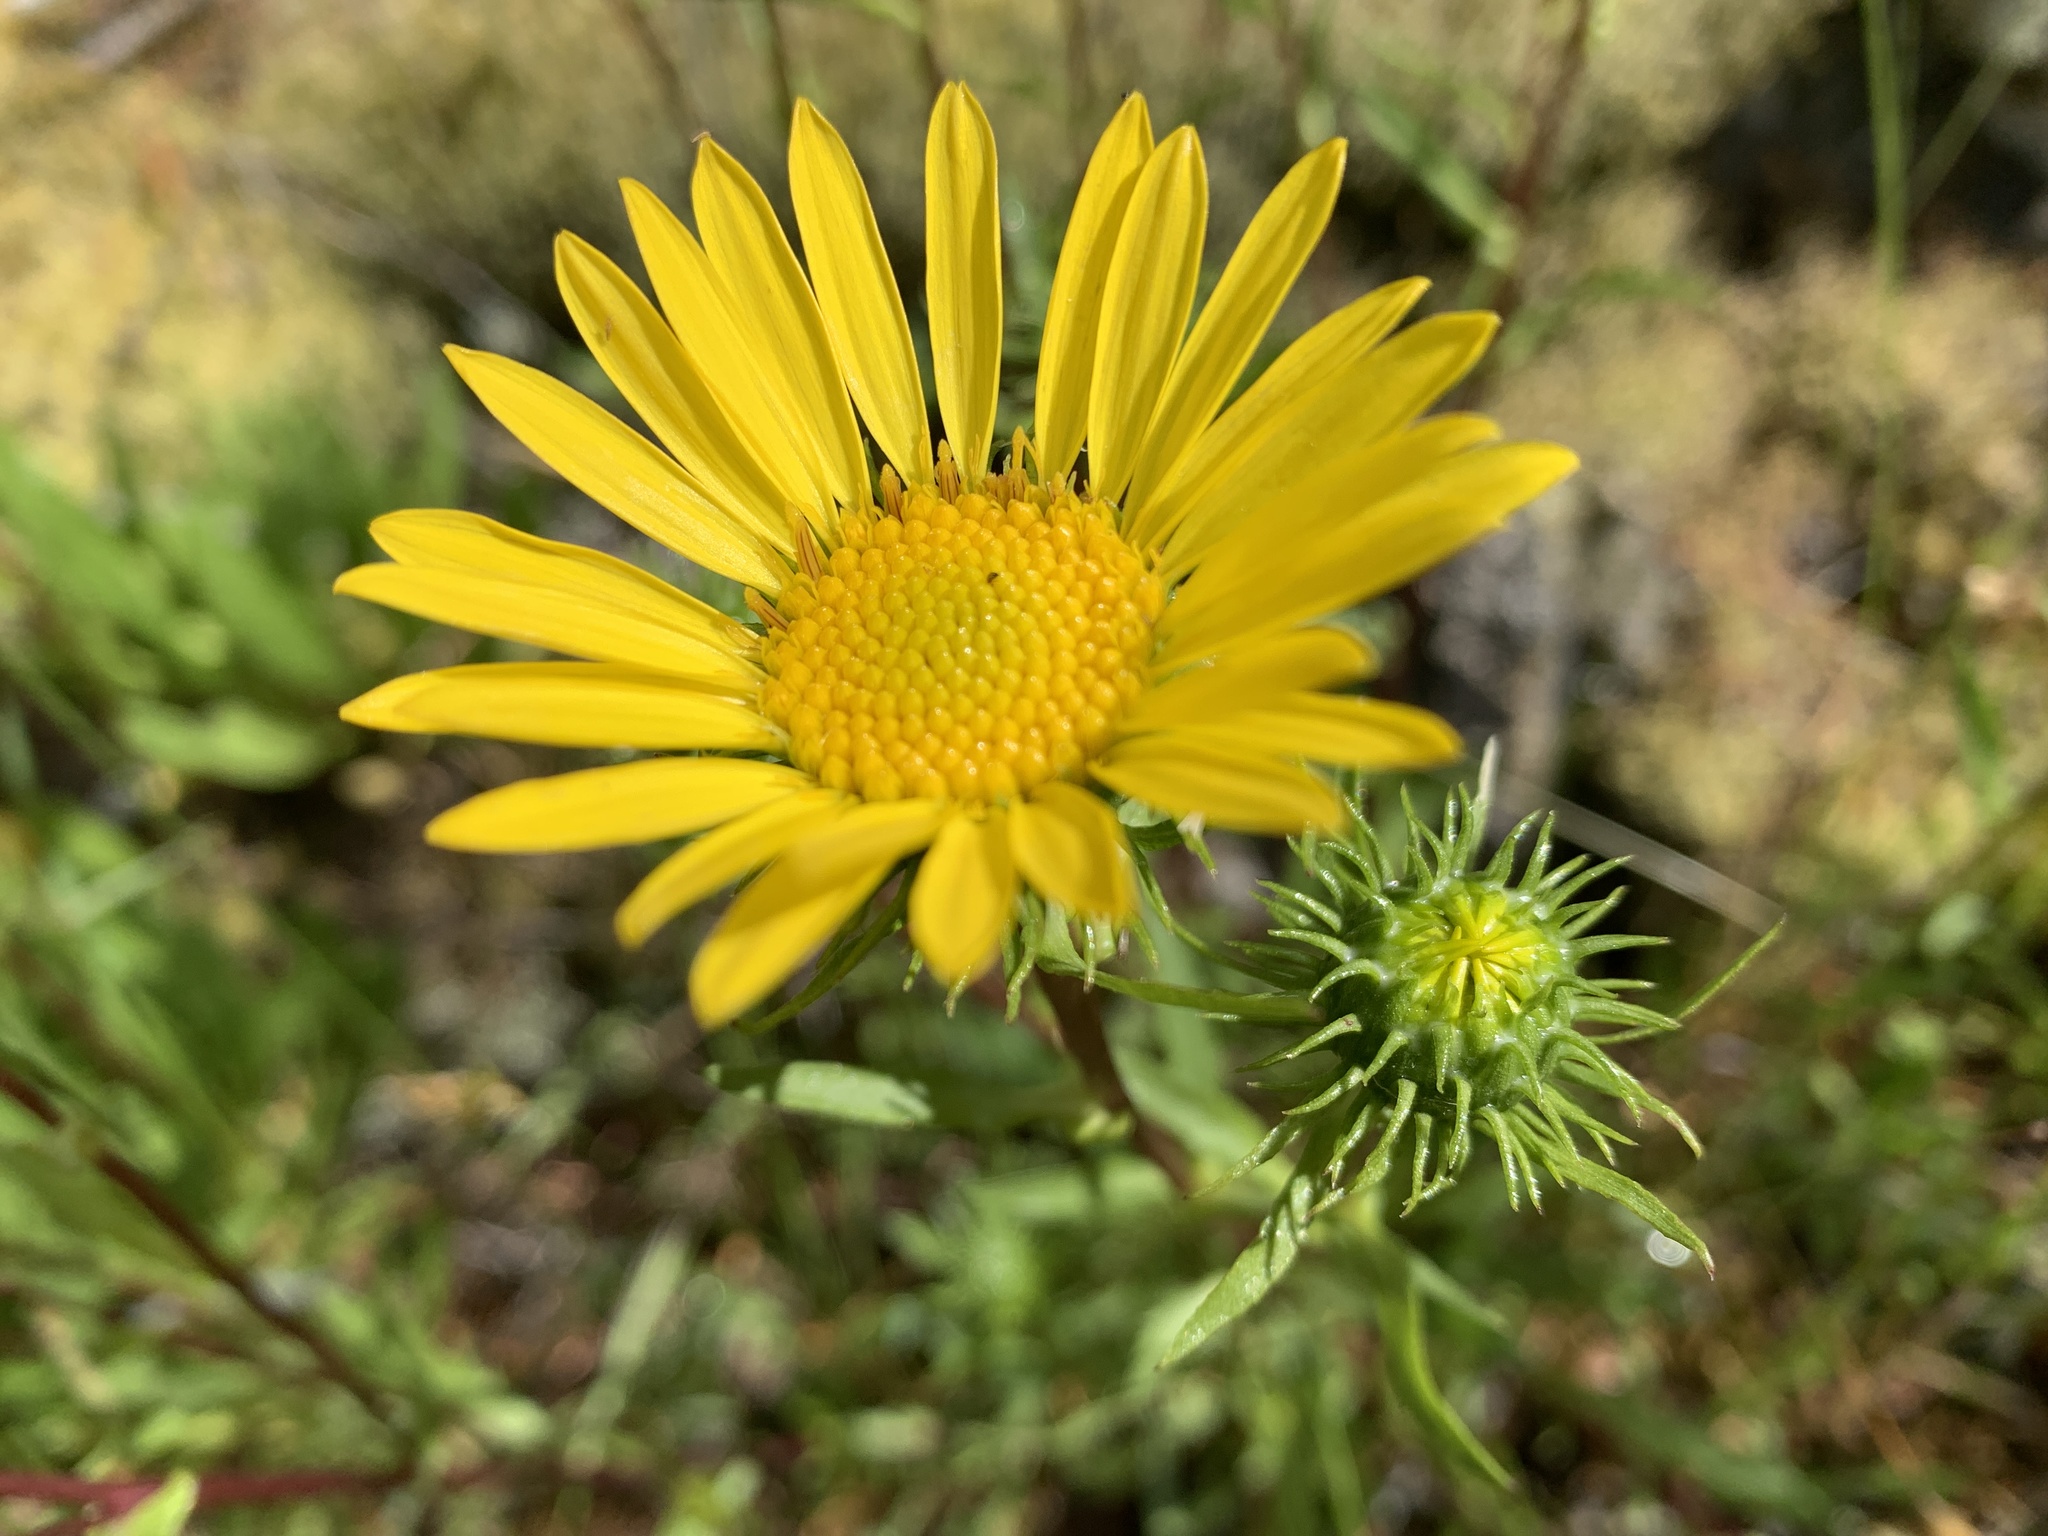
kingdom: Plantae
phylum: Tracheophyta
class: Magnoliopsida
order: Asterales
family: Asteraceae
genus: Grindelia
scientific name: Grindelia hirsutula
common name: Hairy gumweed
